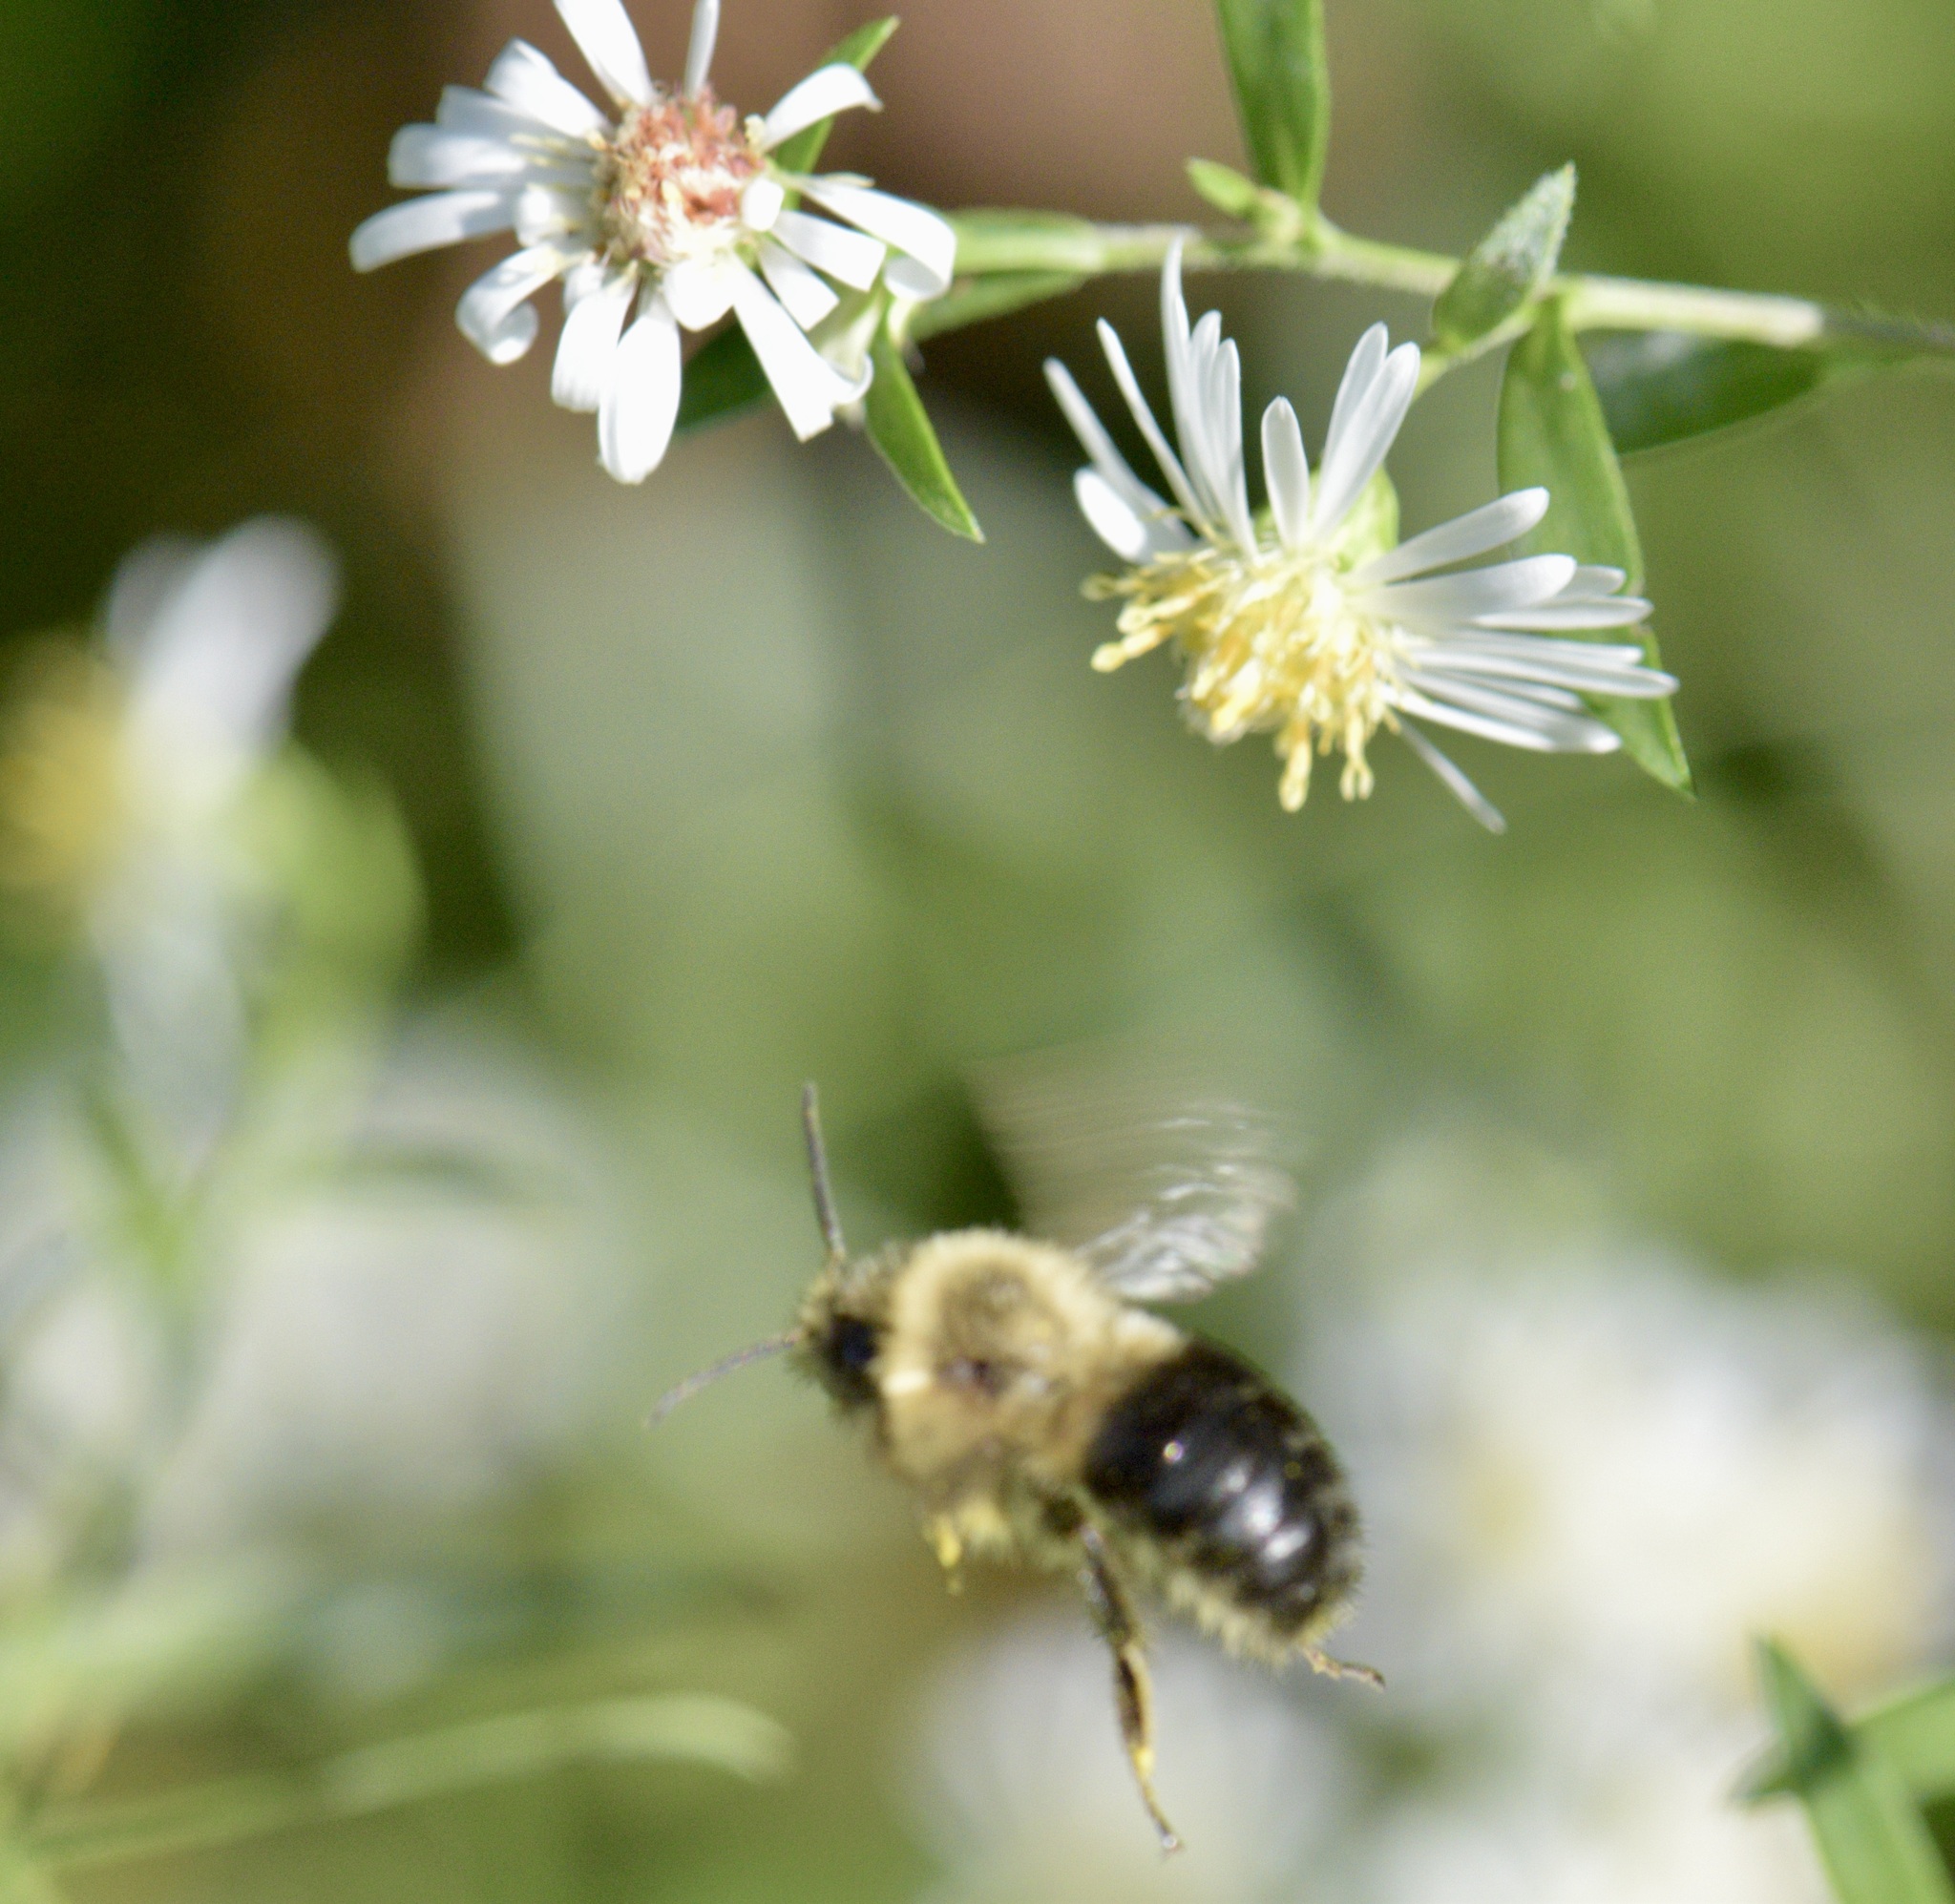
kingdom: Animalia
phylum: Arthropoda
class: Insecta
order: Hymenoptera
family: Apidae
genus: Bombus
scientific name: Bombus impatiens
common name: Common eastern bumble bee
